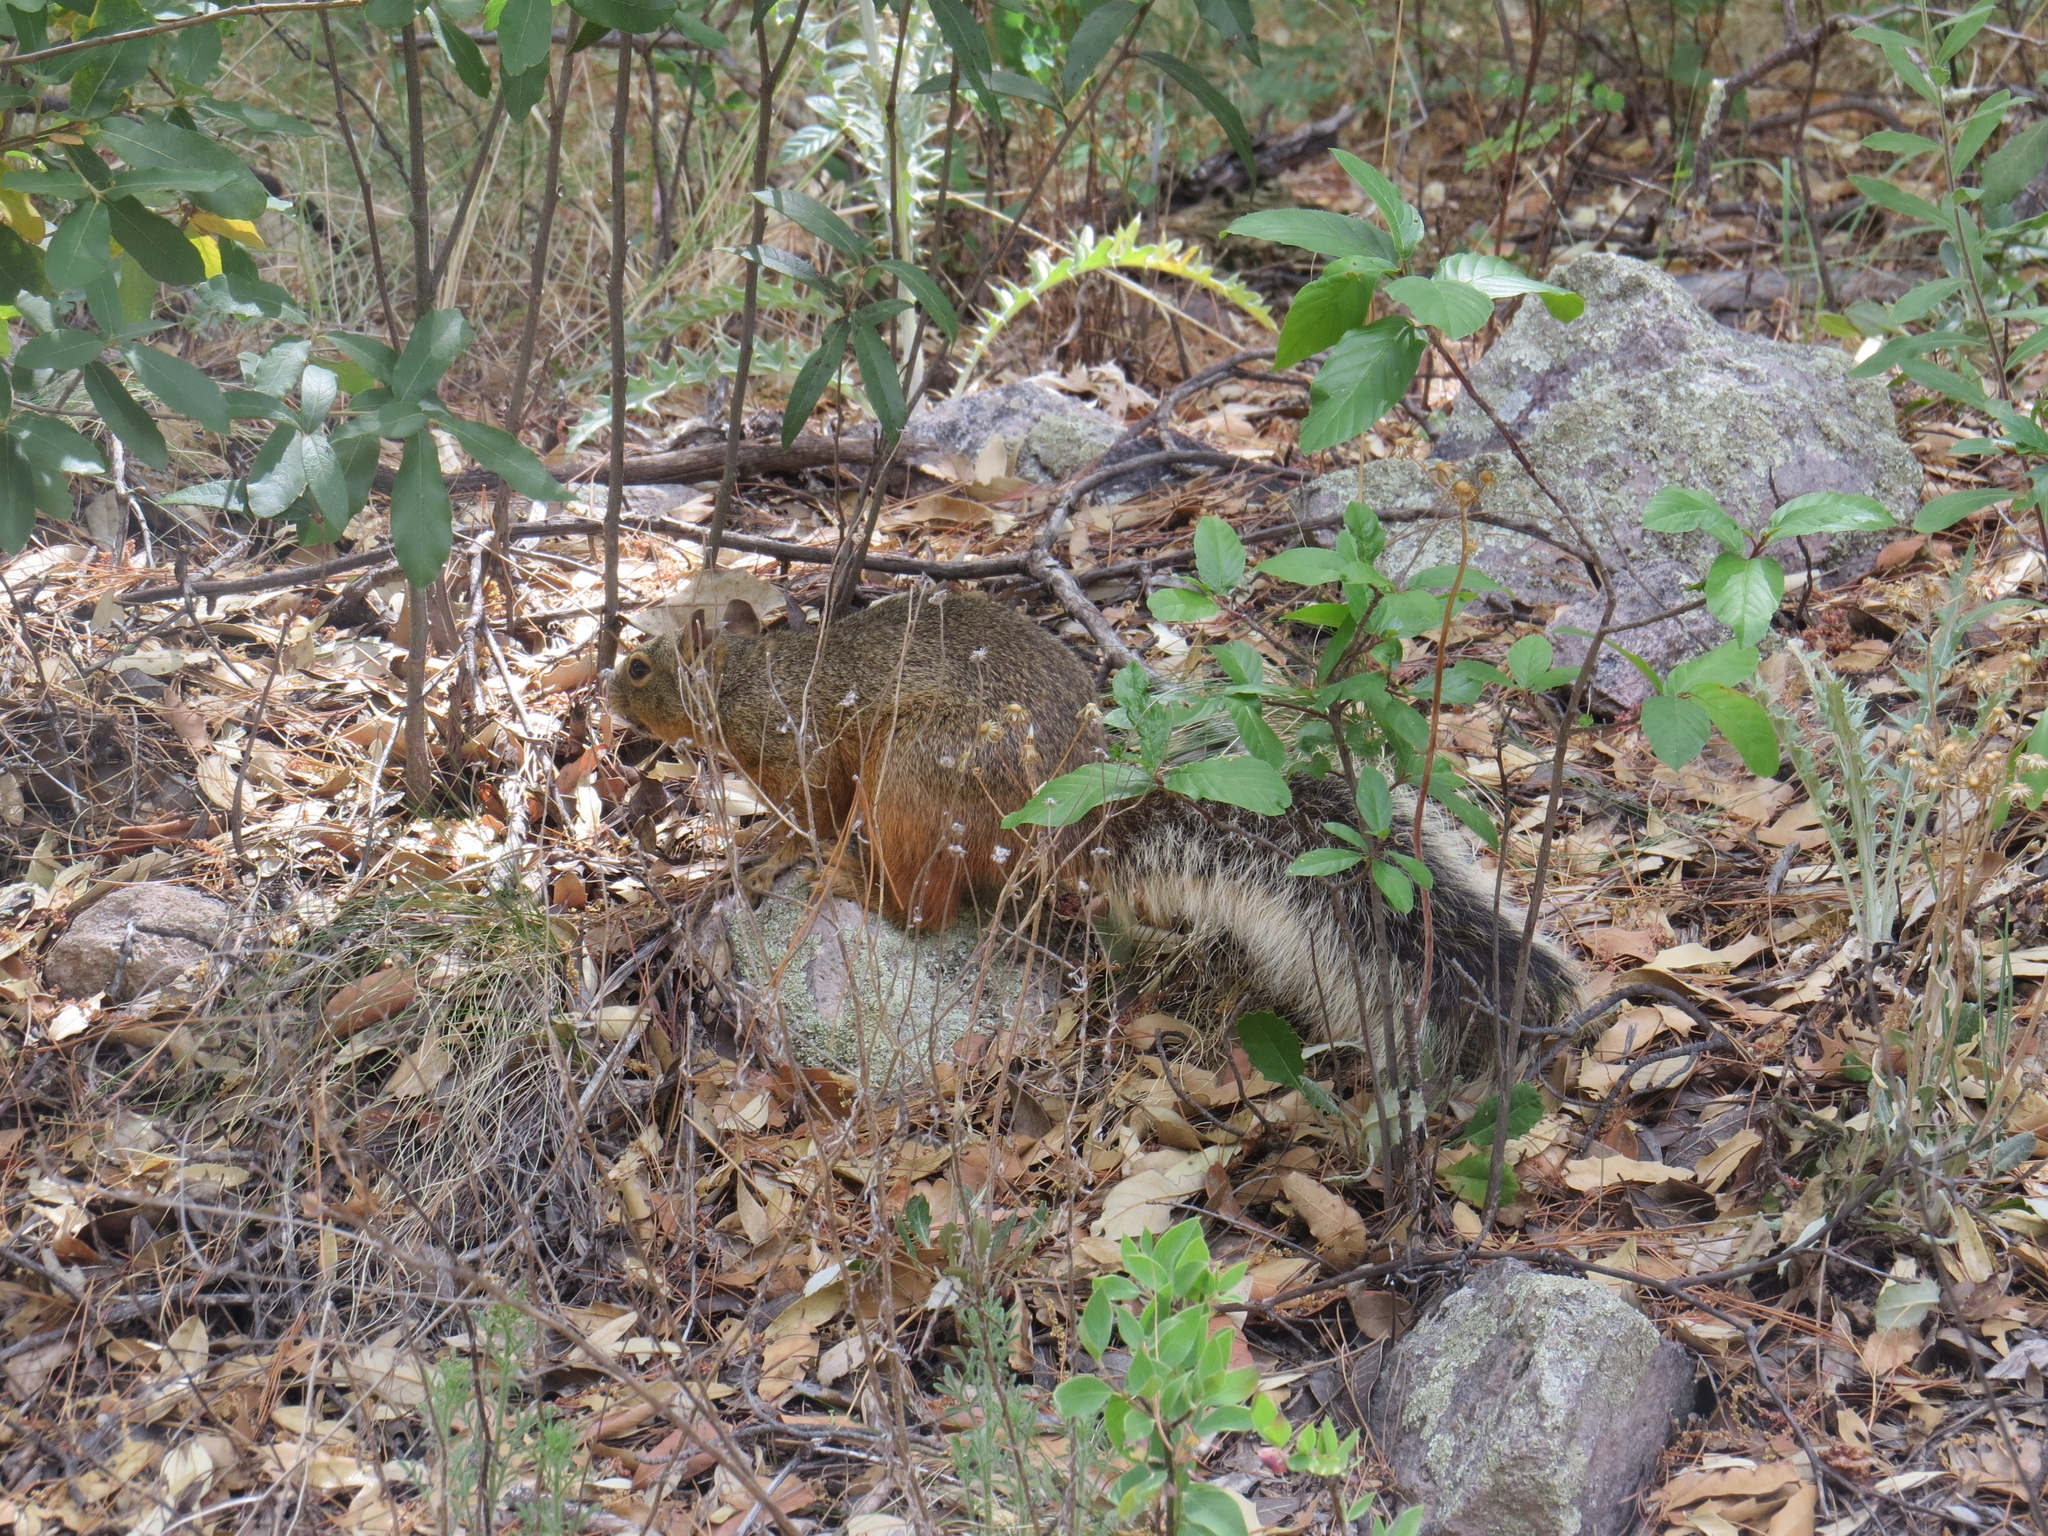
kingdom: Animalia
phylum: Chordata
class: Mammalia
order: Rodentia
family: Sciuridae
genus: Sciurus
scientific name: Sciurus nayaritensis
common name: Mexican fox squirrel
